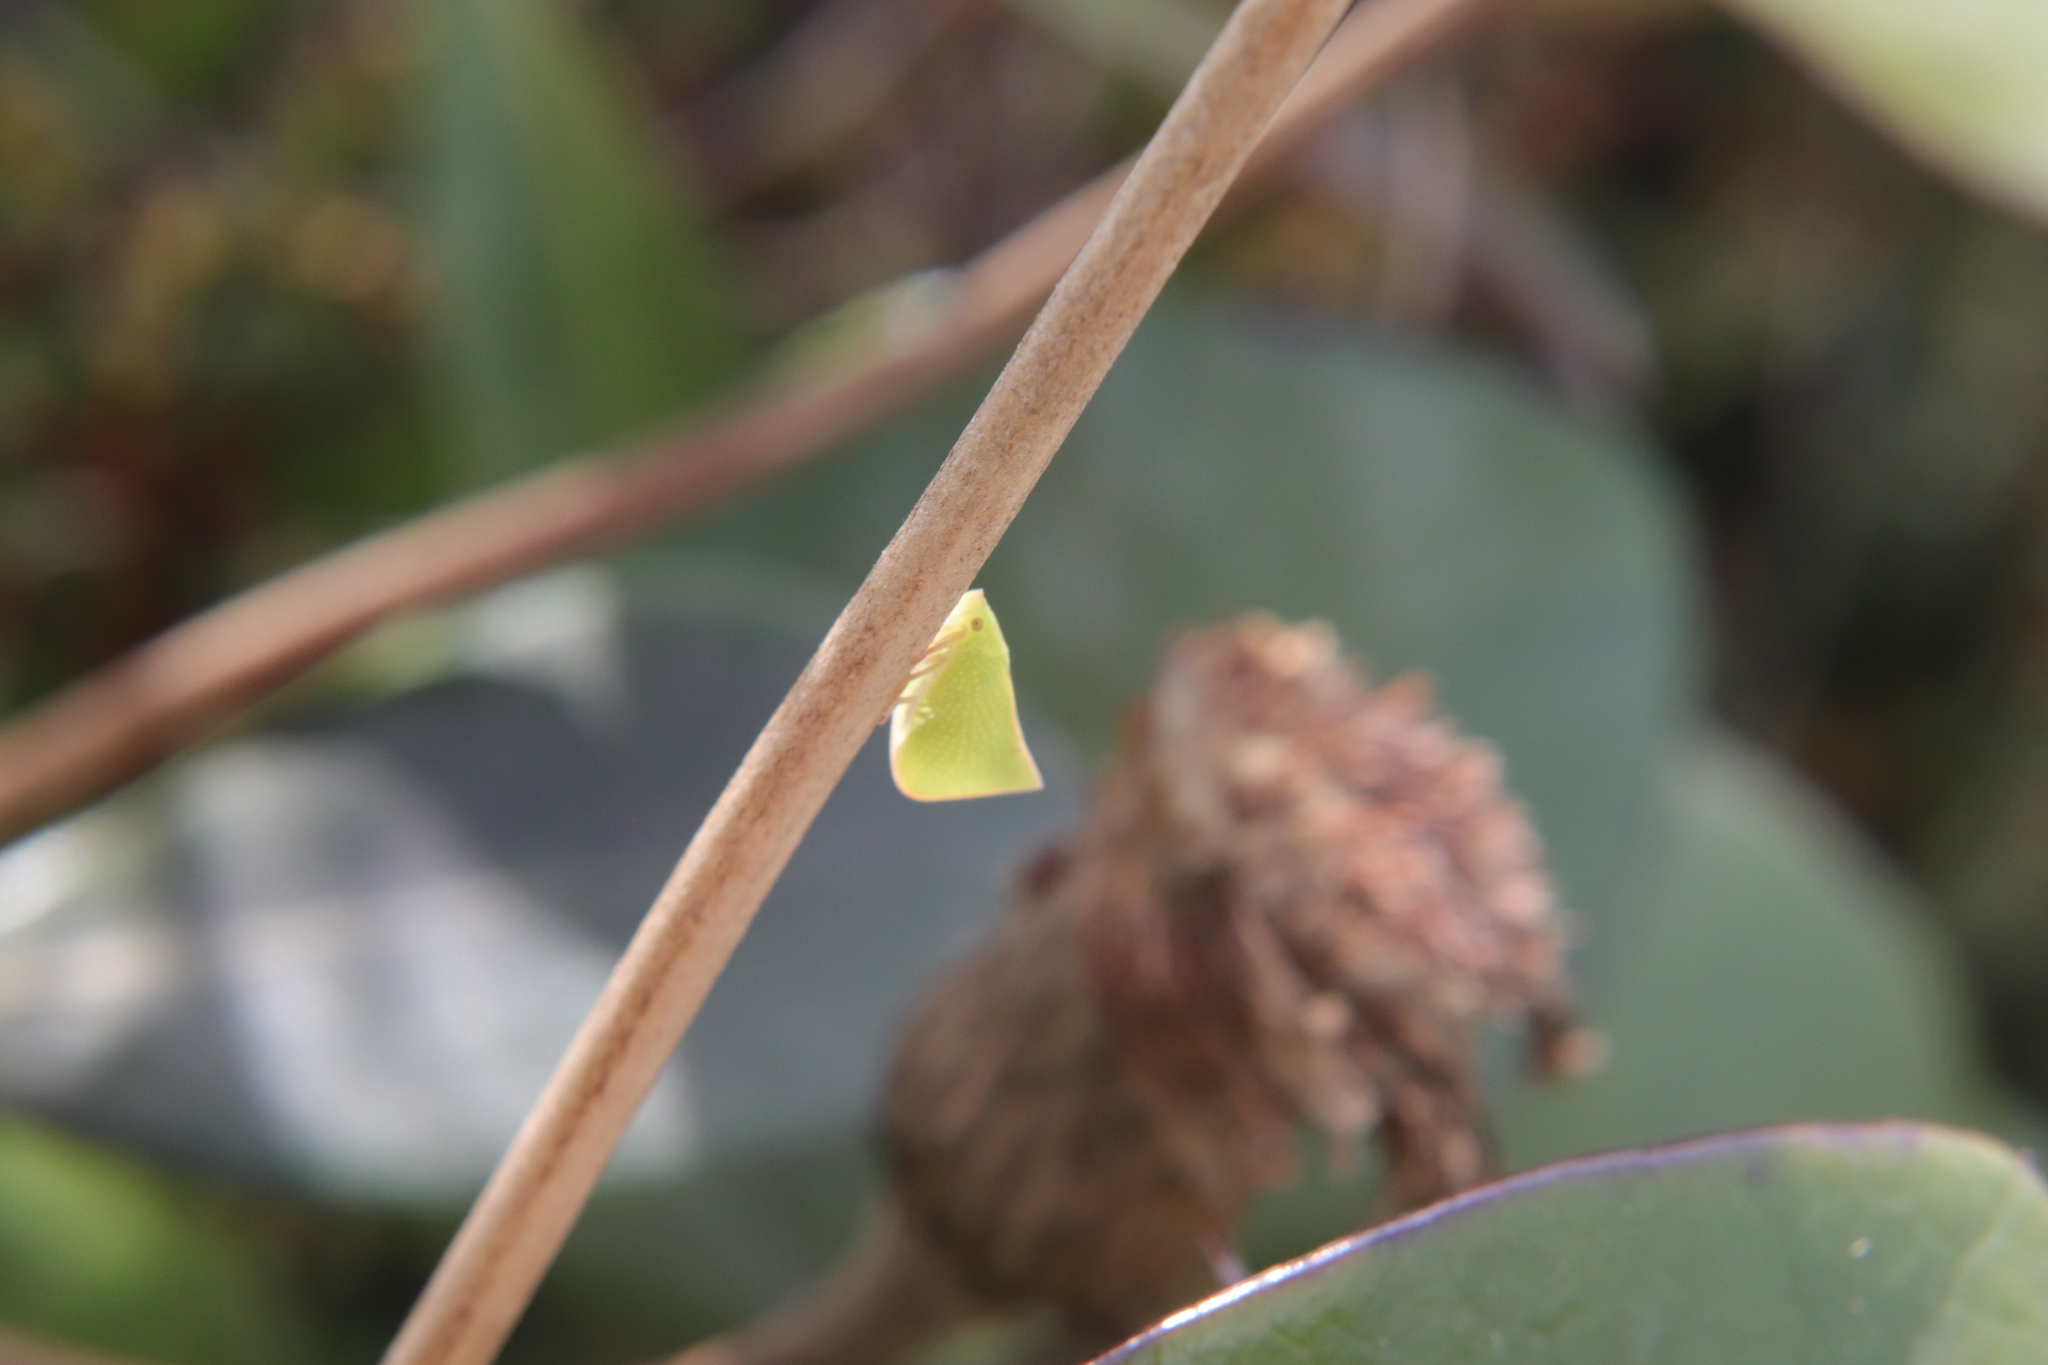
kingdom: Animalia
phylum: Arthropoda
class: Insecta
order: Hemiptera
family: Flatidae
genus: Siphanta
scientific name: Siphanta acuta
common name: Torpedo bug
